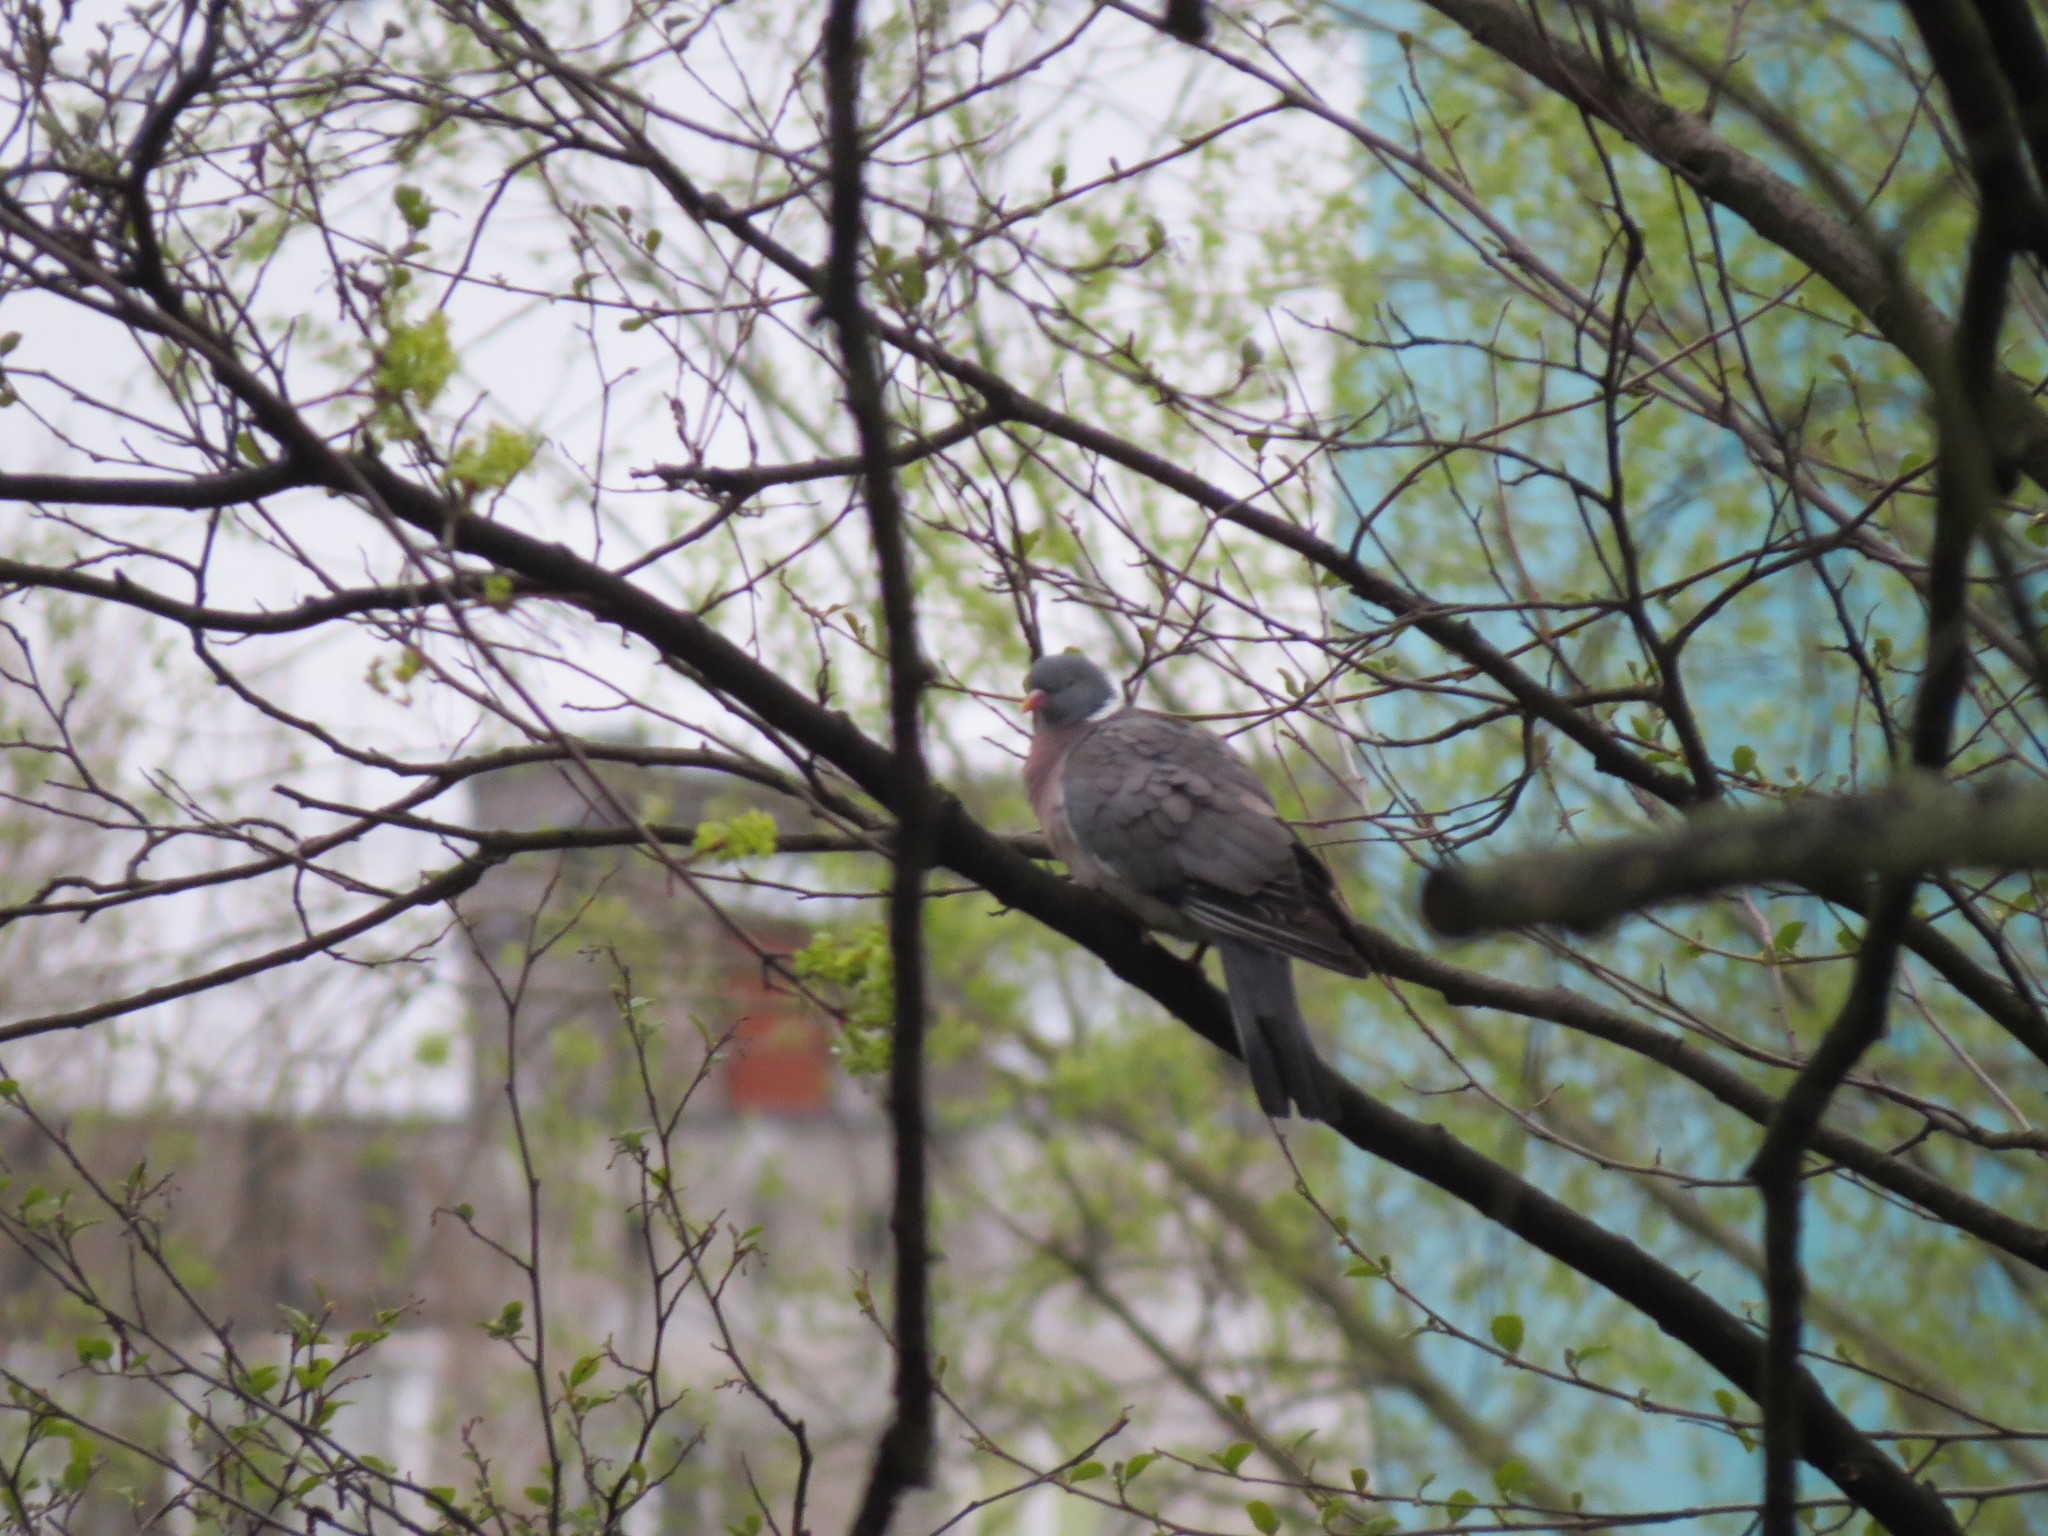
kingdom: Animalia
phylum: Chordata
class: Aves
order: Columbiformes
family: Columbidae
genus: Columba
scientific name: Columba palumbus
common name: Common wood pigeon
